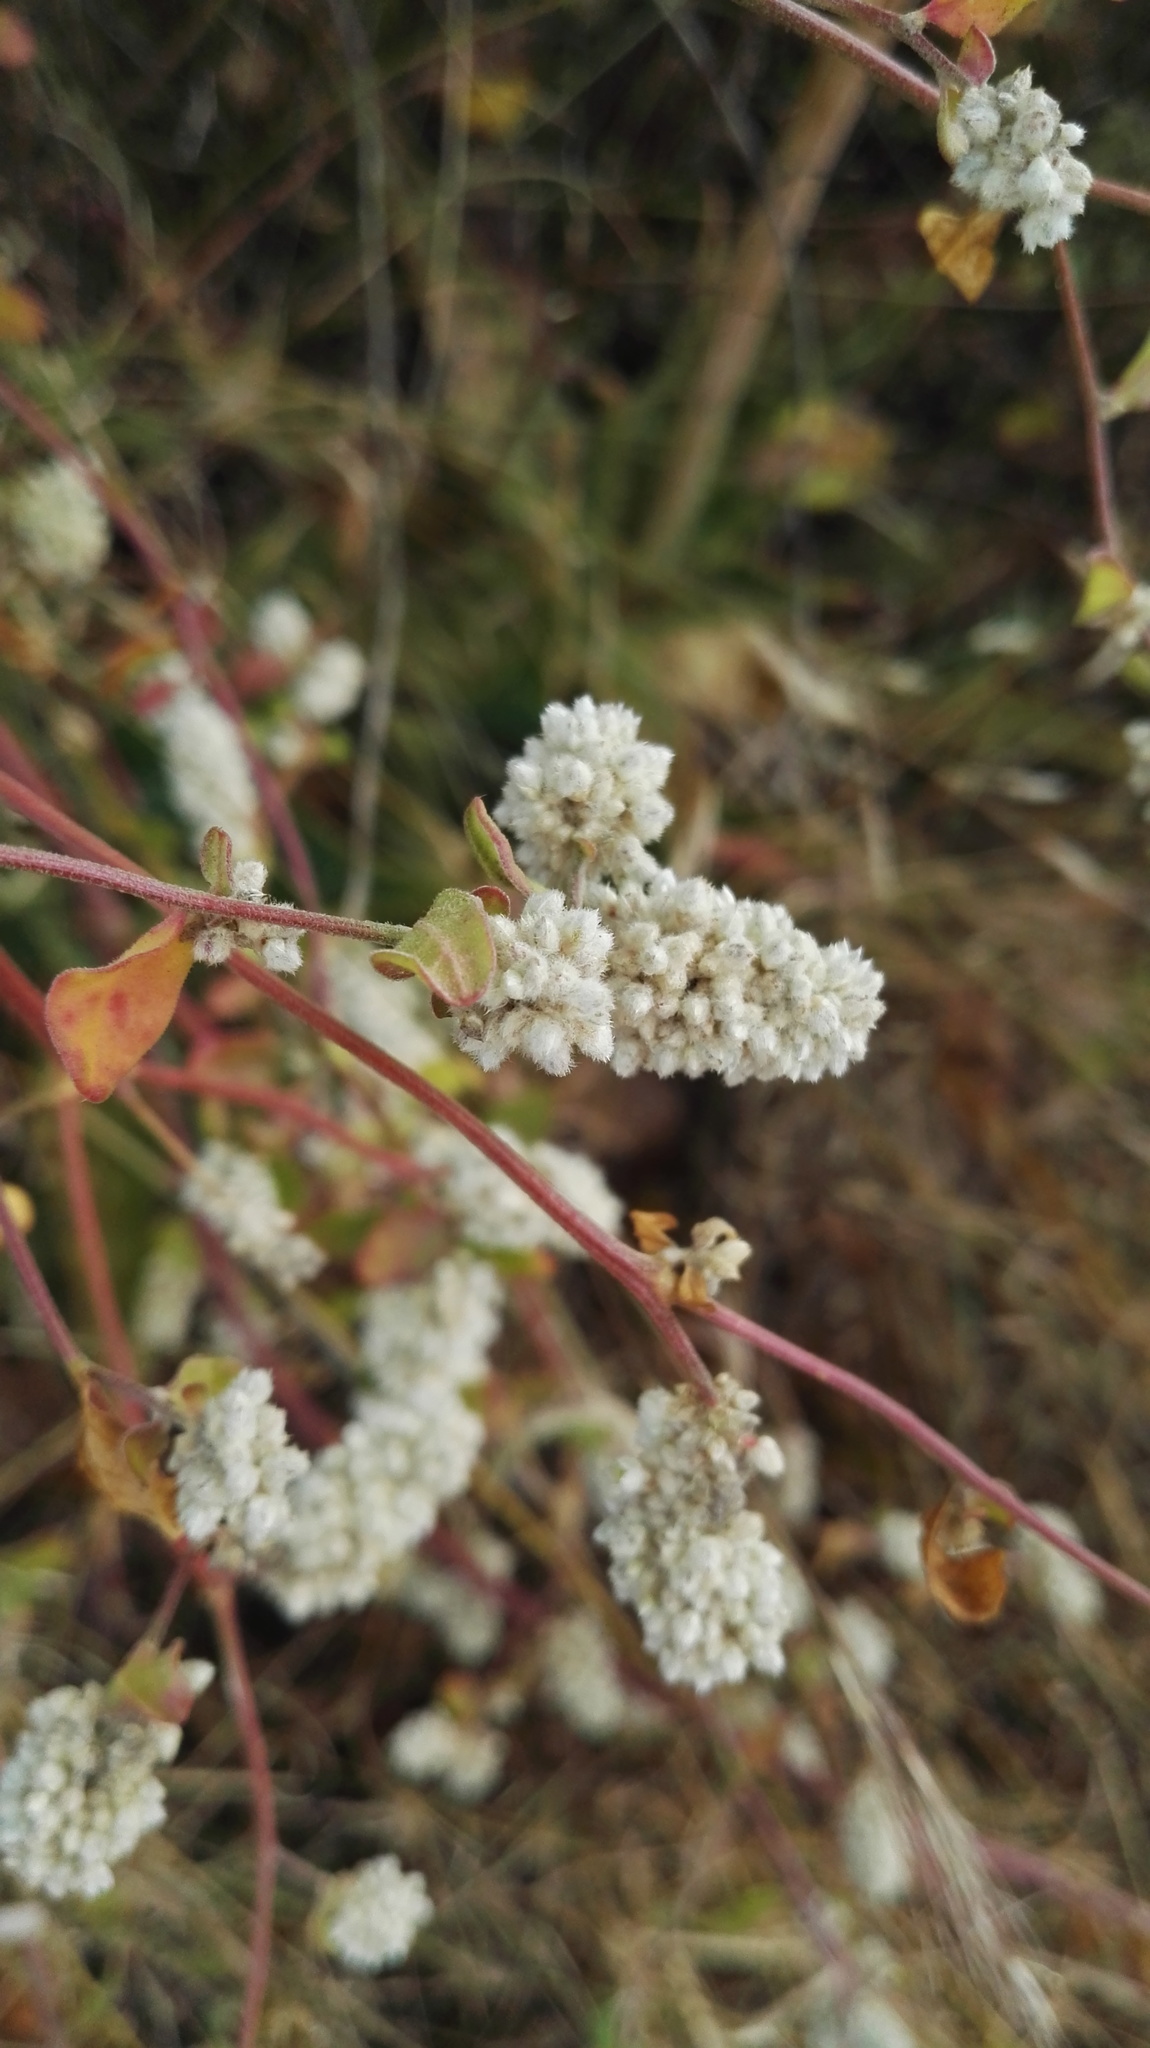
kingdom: Plantae
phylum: Tracheophyta
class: Magnoliopsida
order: Caryophyllales
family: Amaranthaceae
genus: Ouret
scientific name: Ouret leucura
